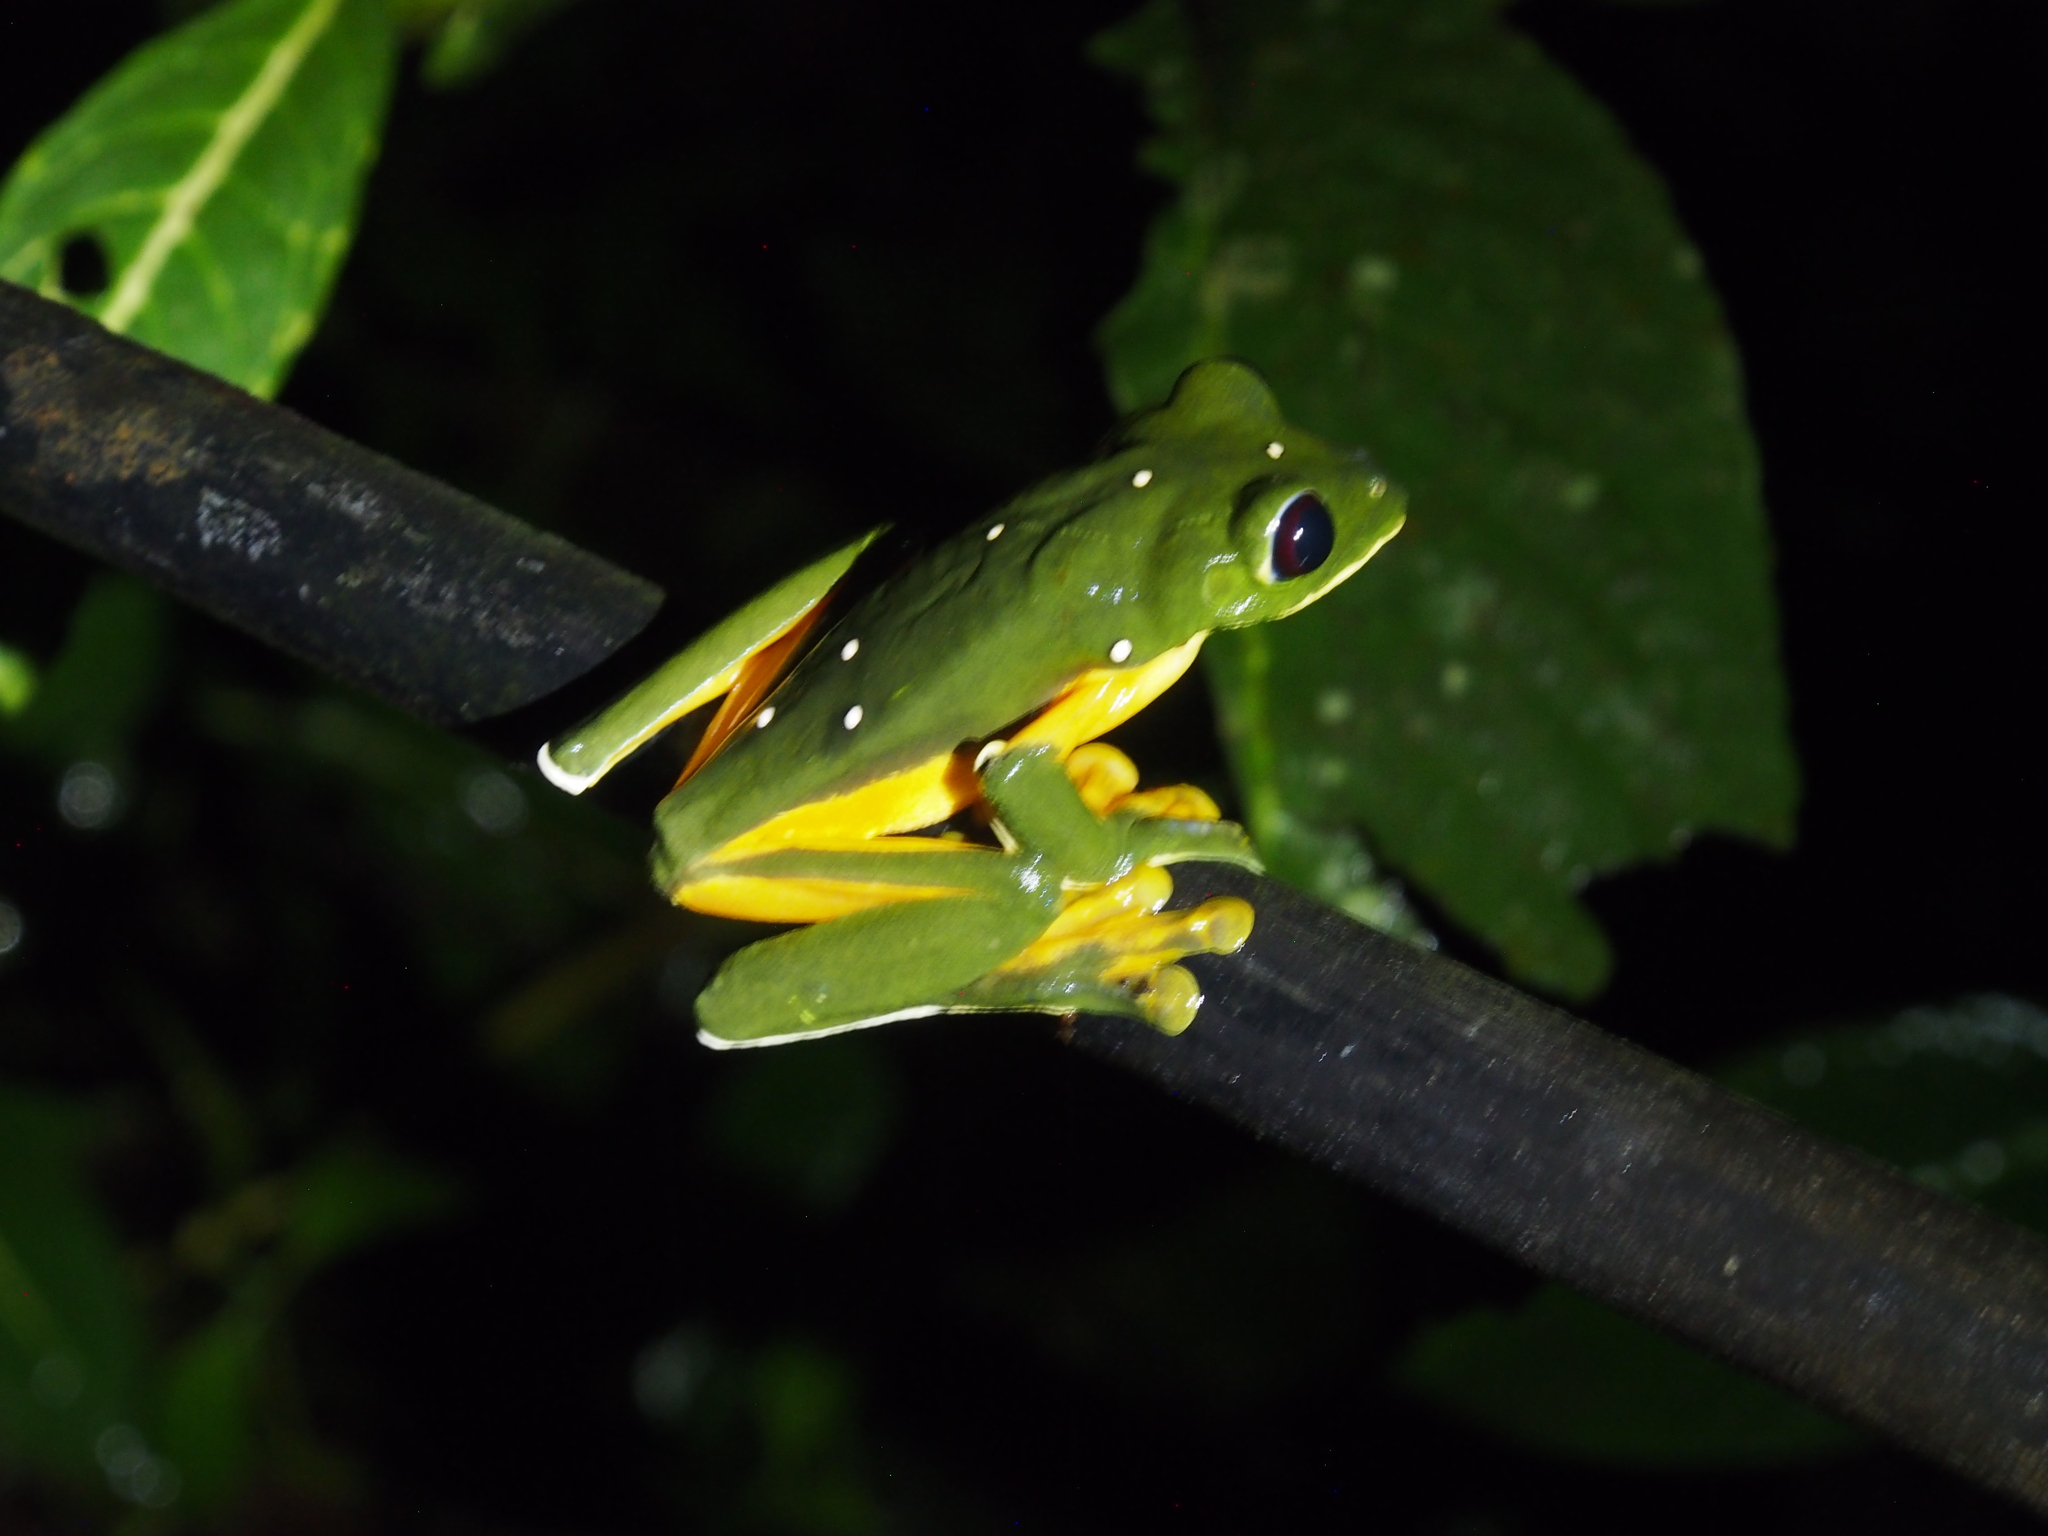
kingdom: Animalia
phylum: Chordata
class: Amphibia
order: Anura
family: Phyllomedusidae
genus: Agalychnis
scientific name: Agalychnis spurrelli
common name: Gliding leaf frog
